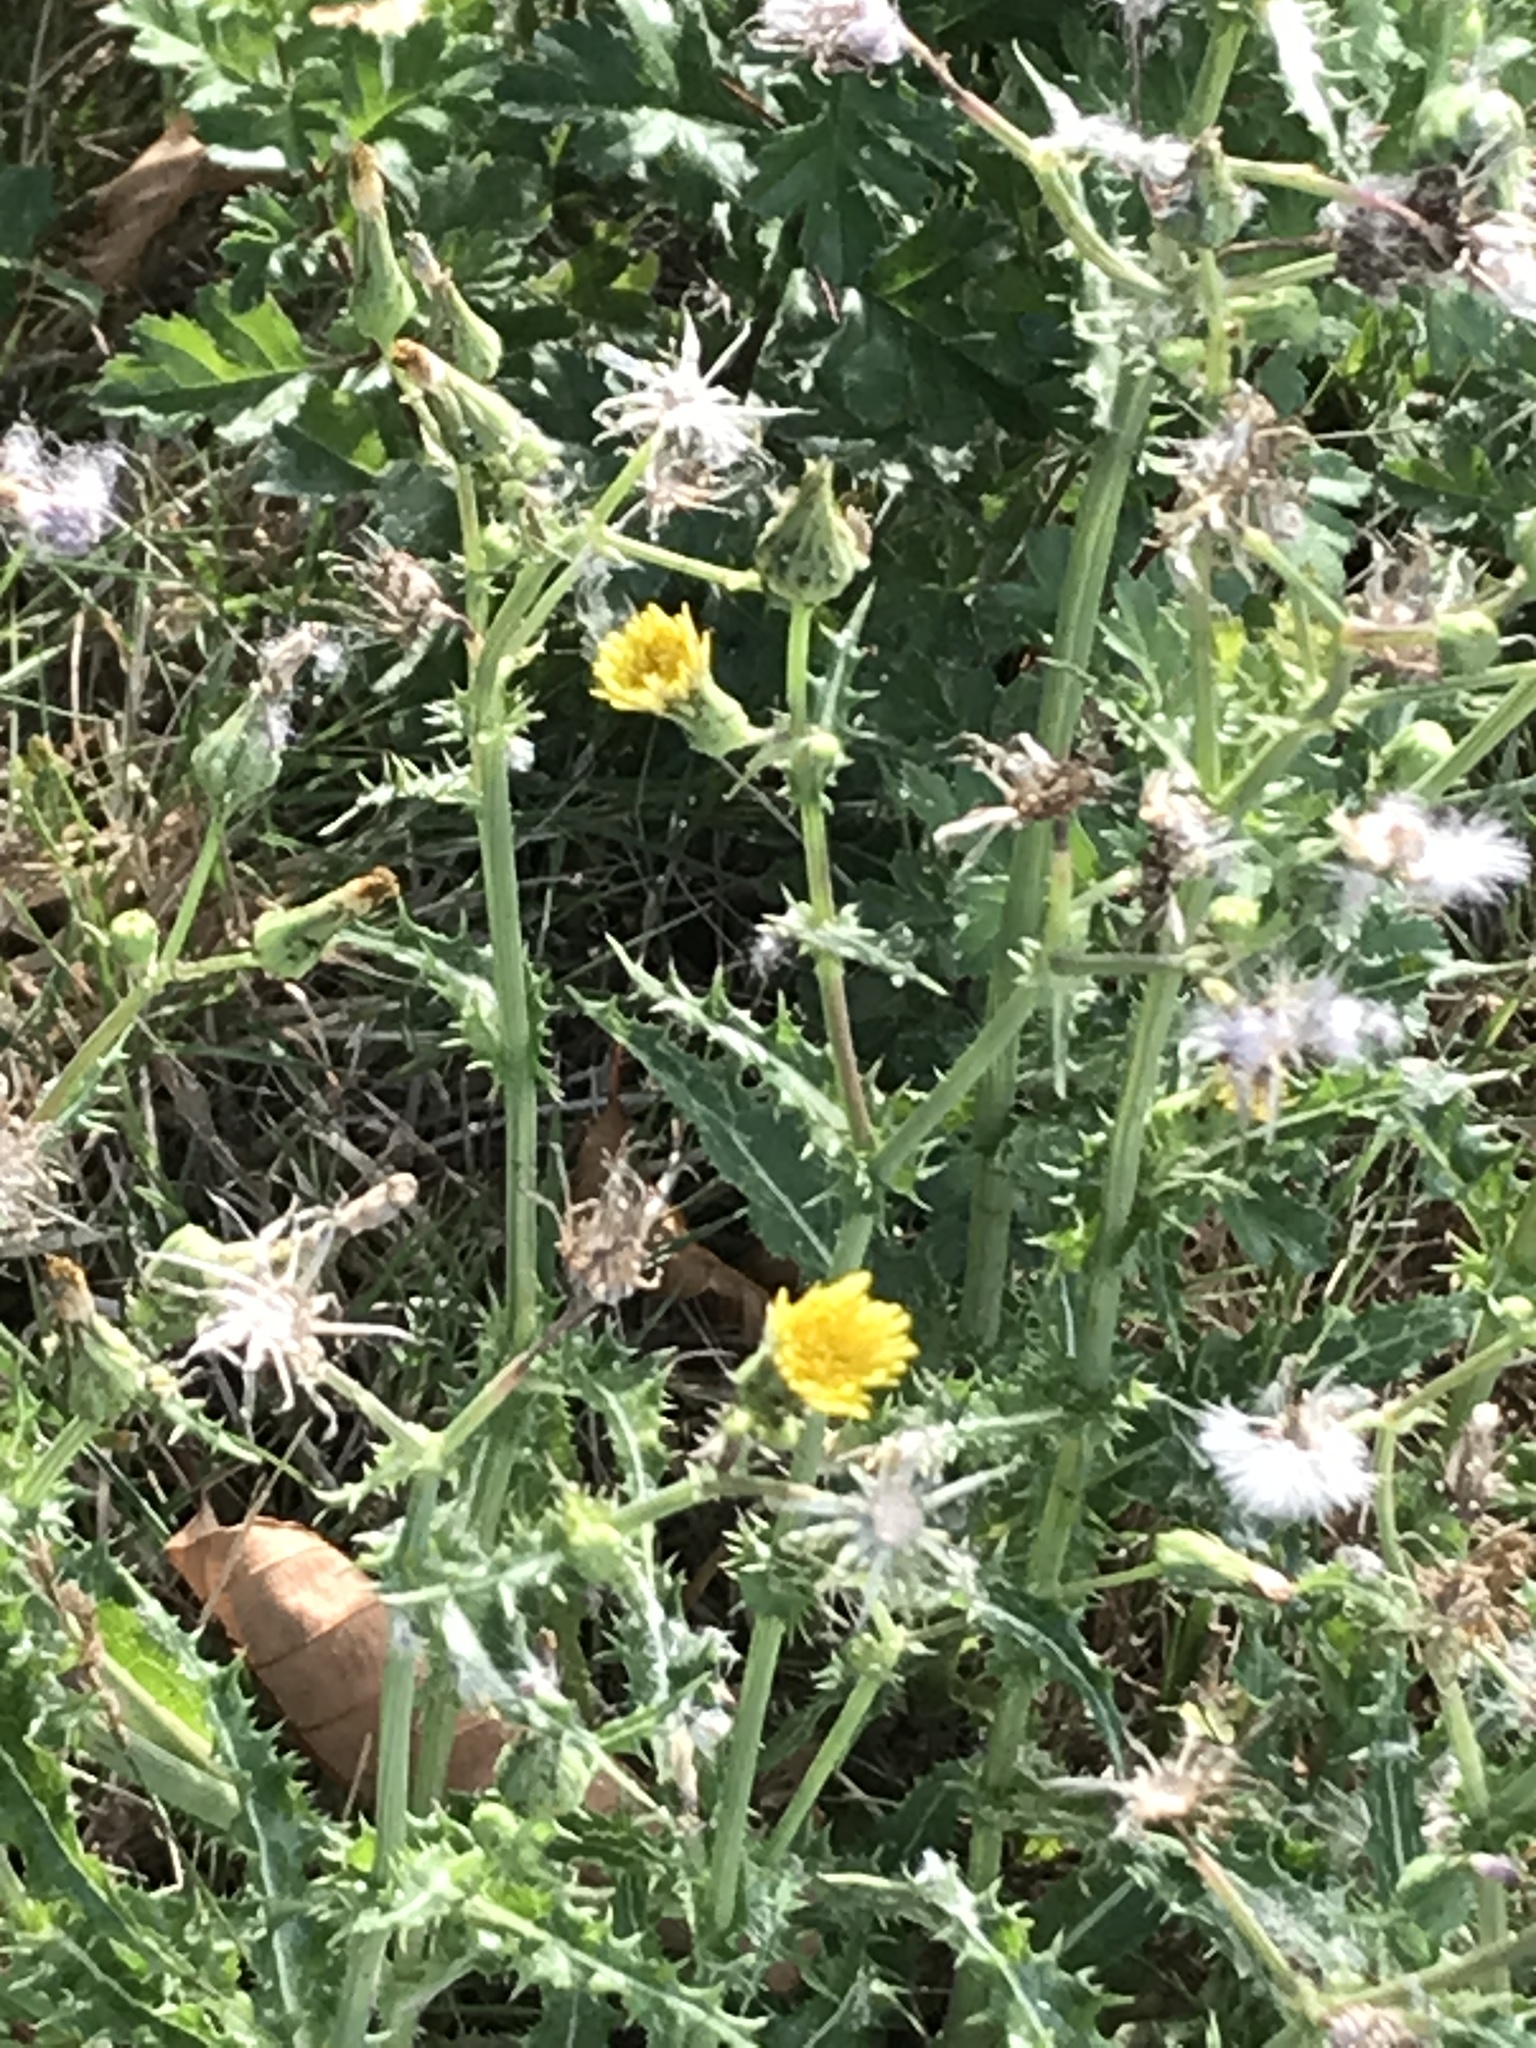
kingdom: Plantae
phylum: Tracheophyta
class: Magnoliopsida
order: Asterales
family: Asteraceae
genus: Sonchus
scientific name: Sonchus asper
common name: Prickly sow-thistle
